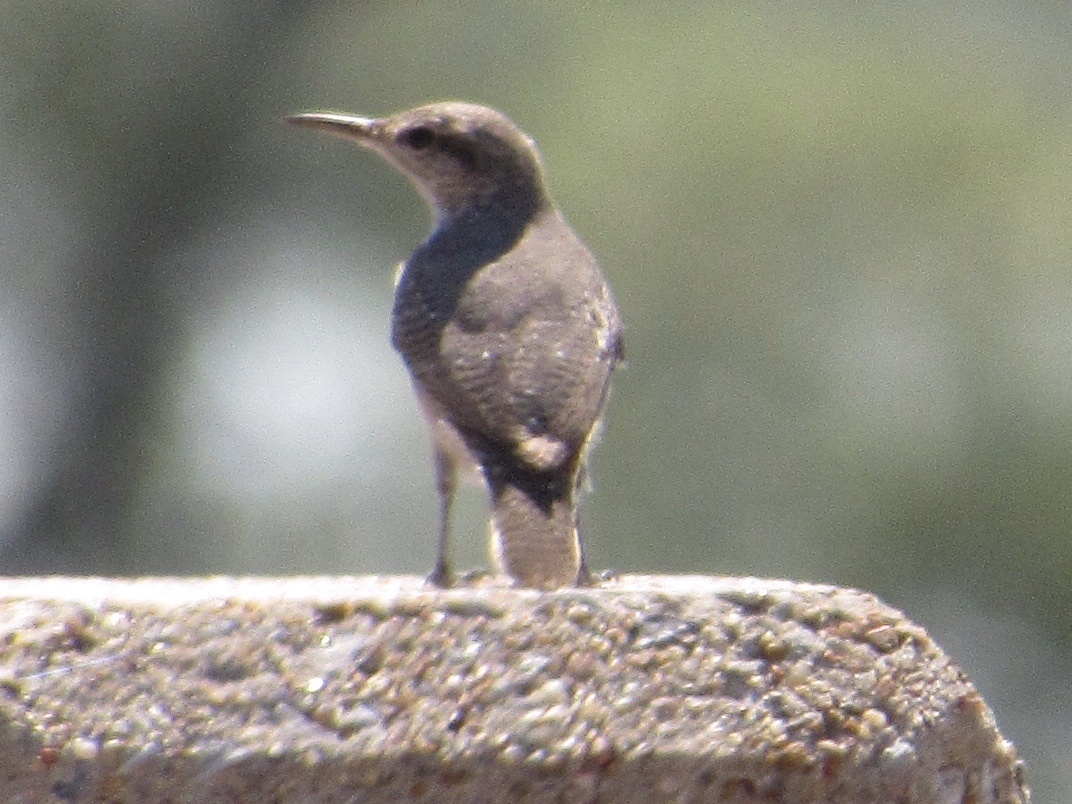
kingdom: Animalia
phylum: Chordata
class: Aves
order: Passeriformes
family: Troglodytidae
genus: Salpinctes
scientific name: Salpinctes obsoletus
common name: Rock wren
